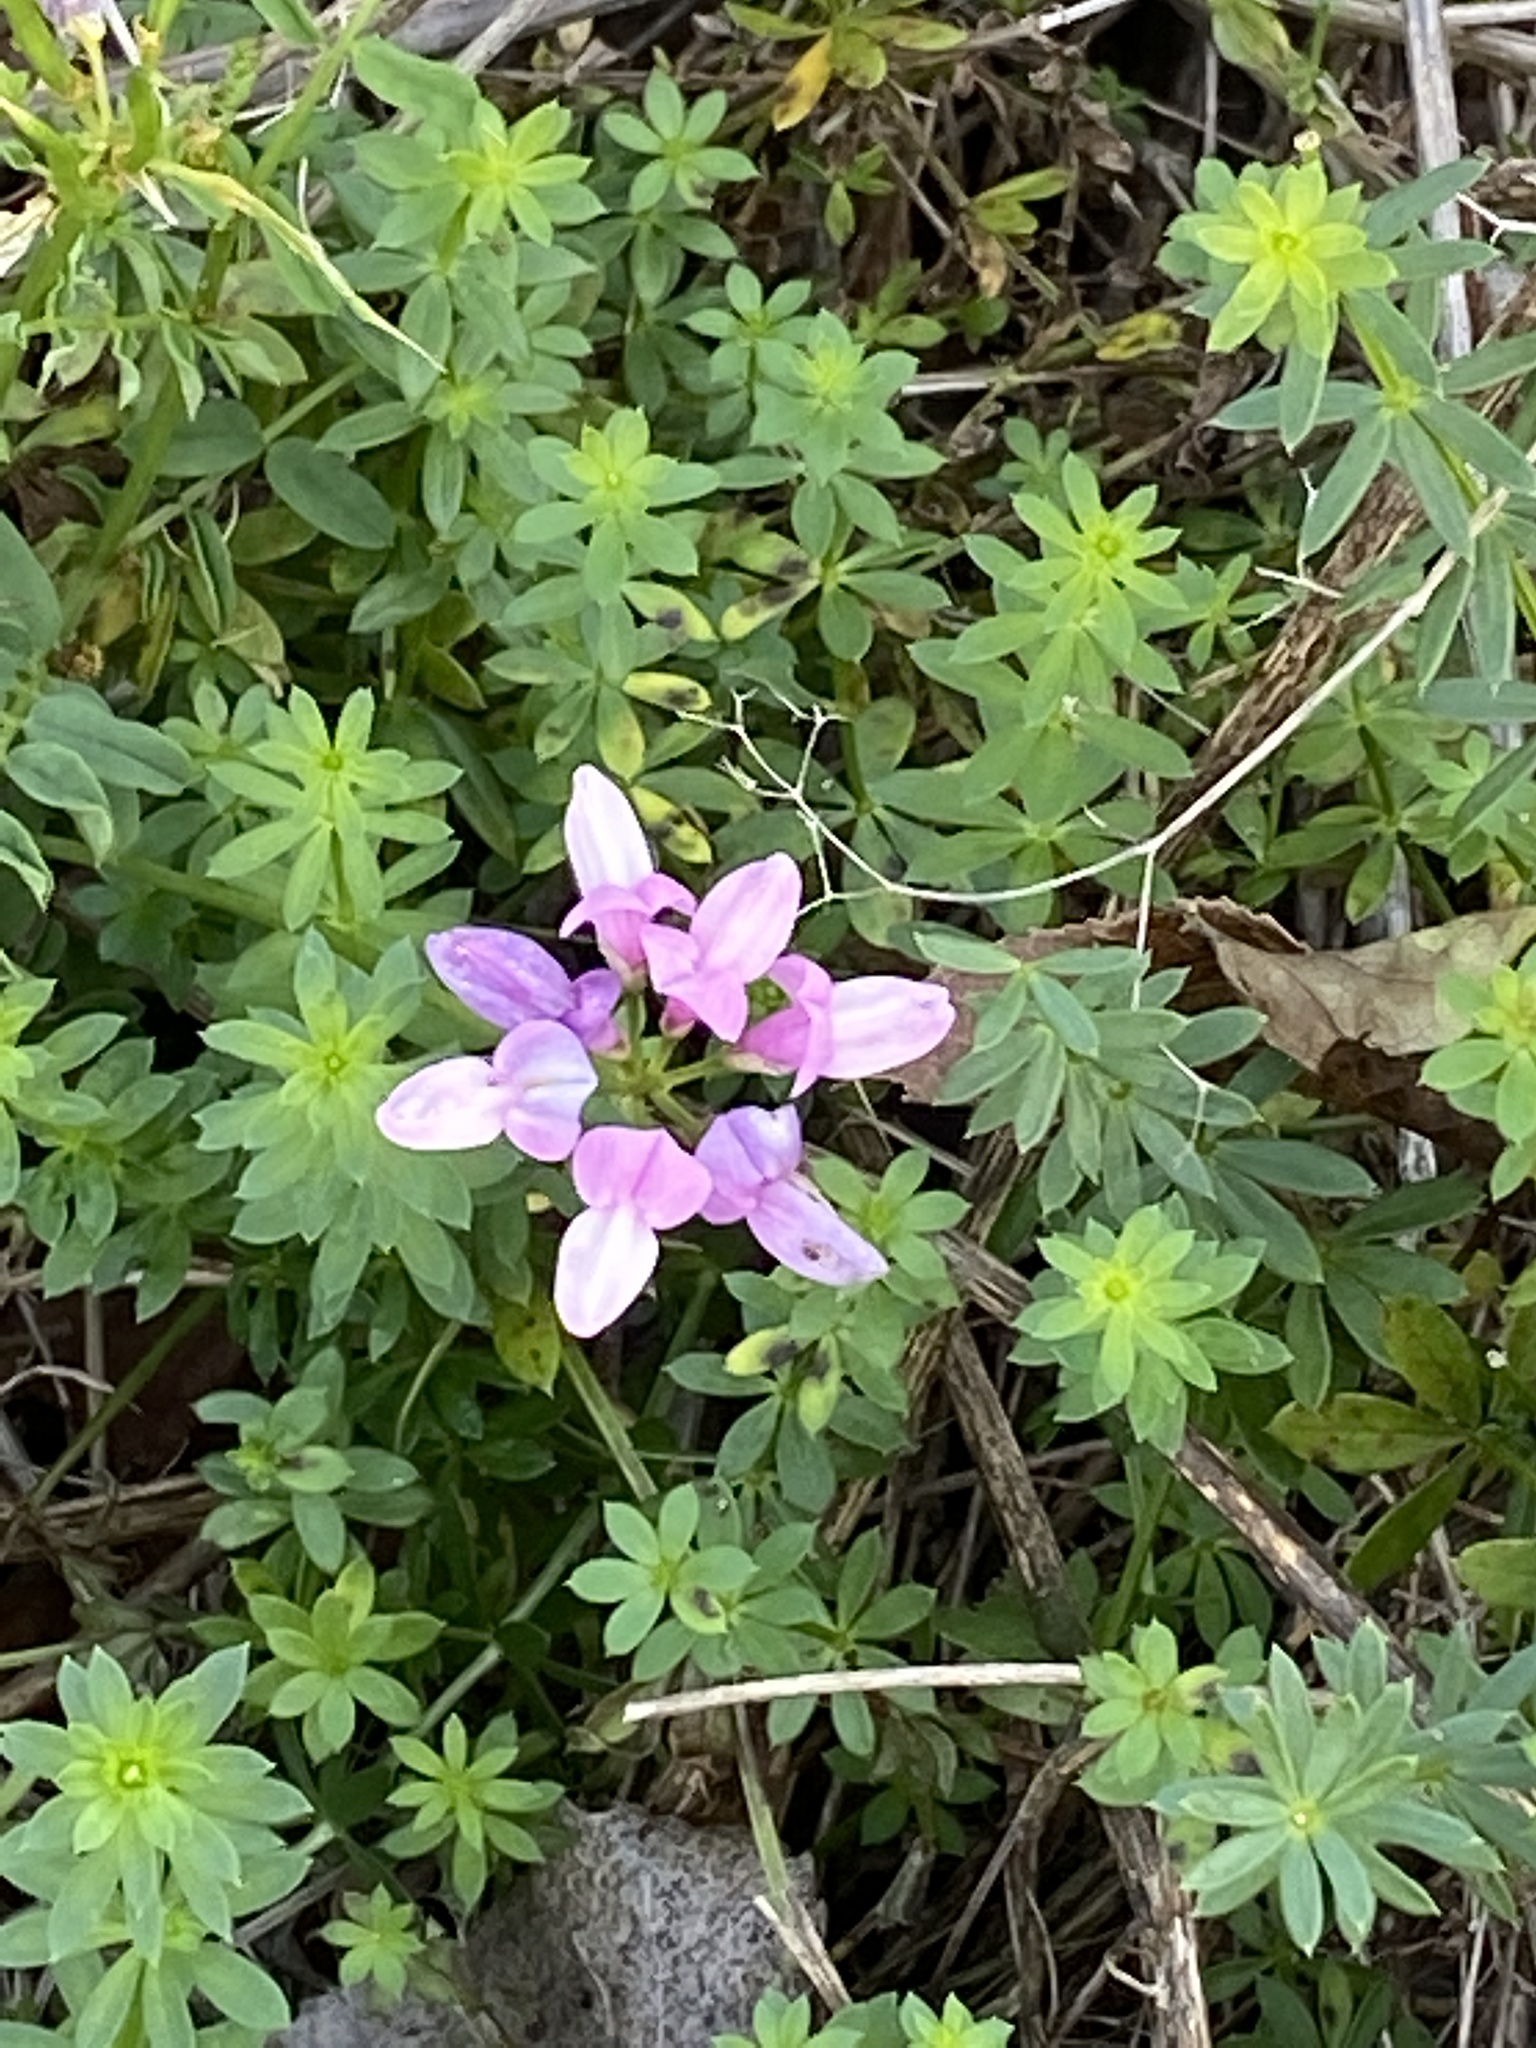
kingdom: Plantae
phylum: Tracheophyta
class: Magnoliopsida
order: Fabales
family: Fabaceae
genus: Coronilla
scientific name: Coronilla varia
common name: Crownvetch
